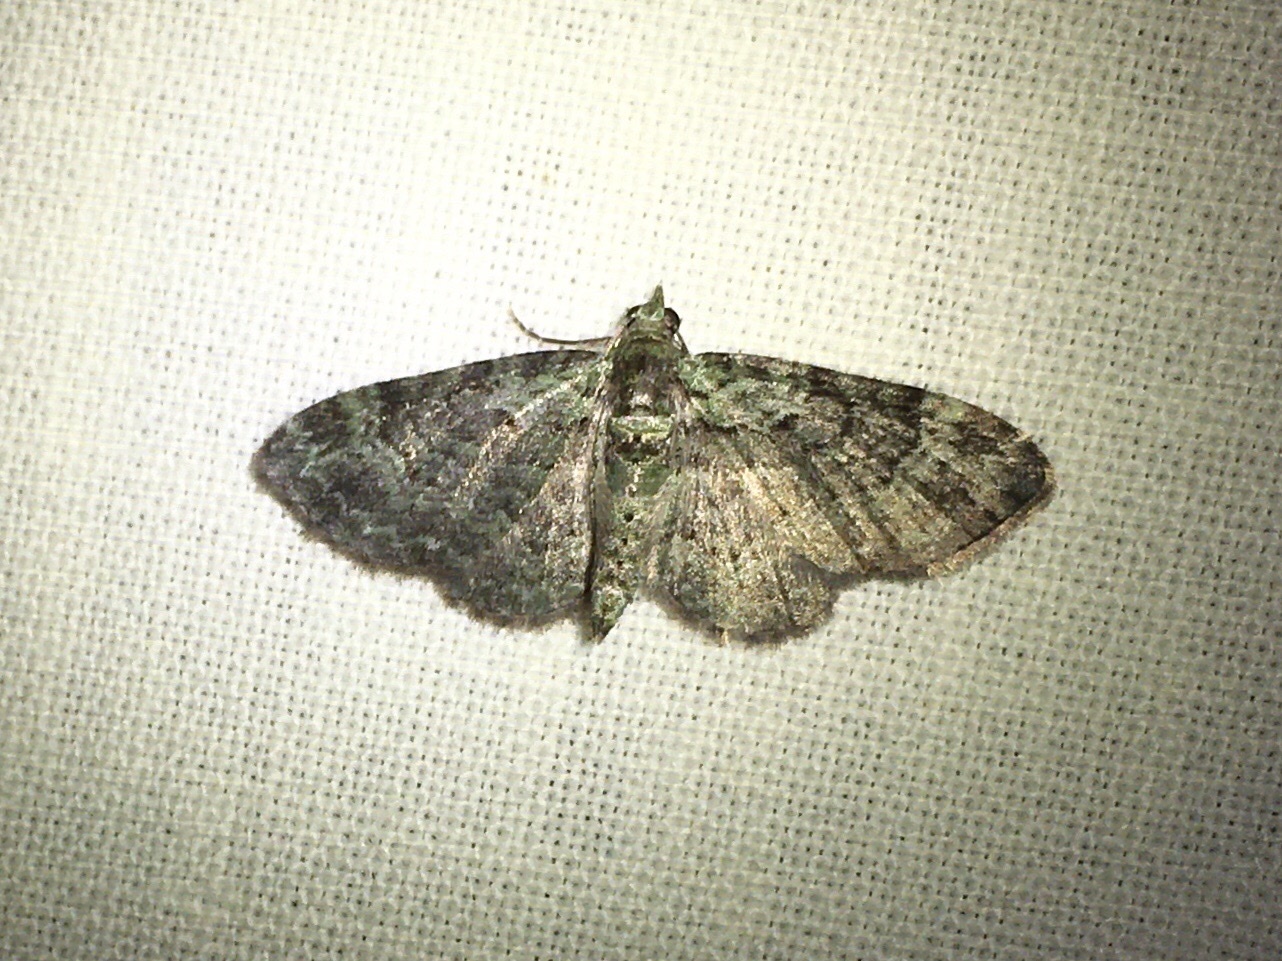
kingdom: Animalia
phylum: Arthropoda
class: Insecta
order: Lepidoptera
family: Geometridae
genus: Pasiphila
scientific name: Pasiphila rectangulata
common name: Green pug
